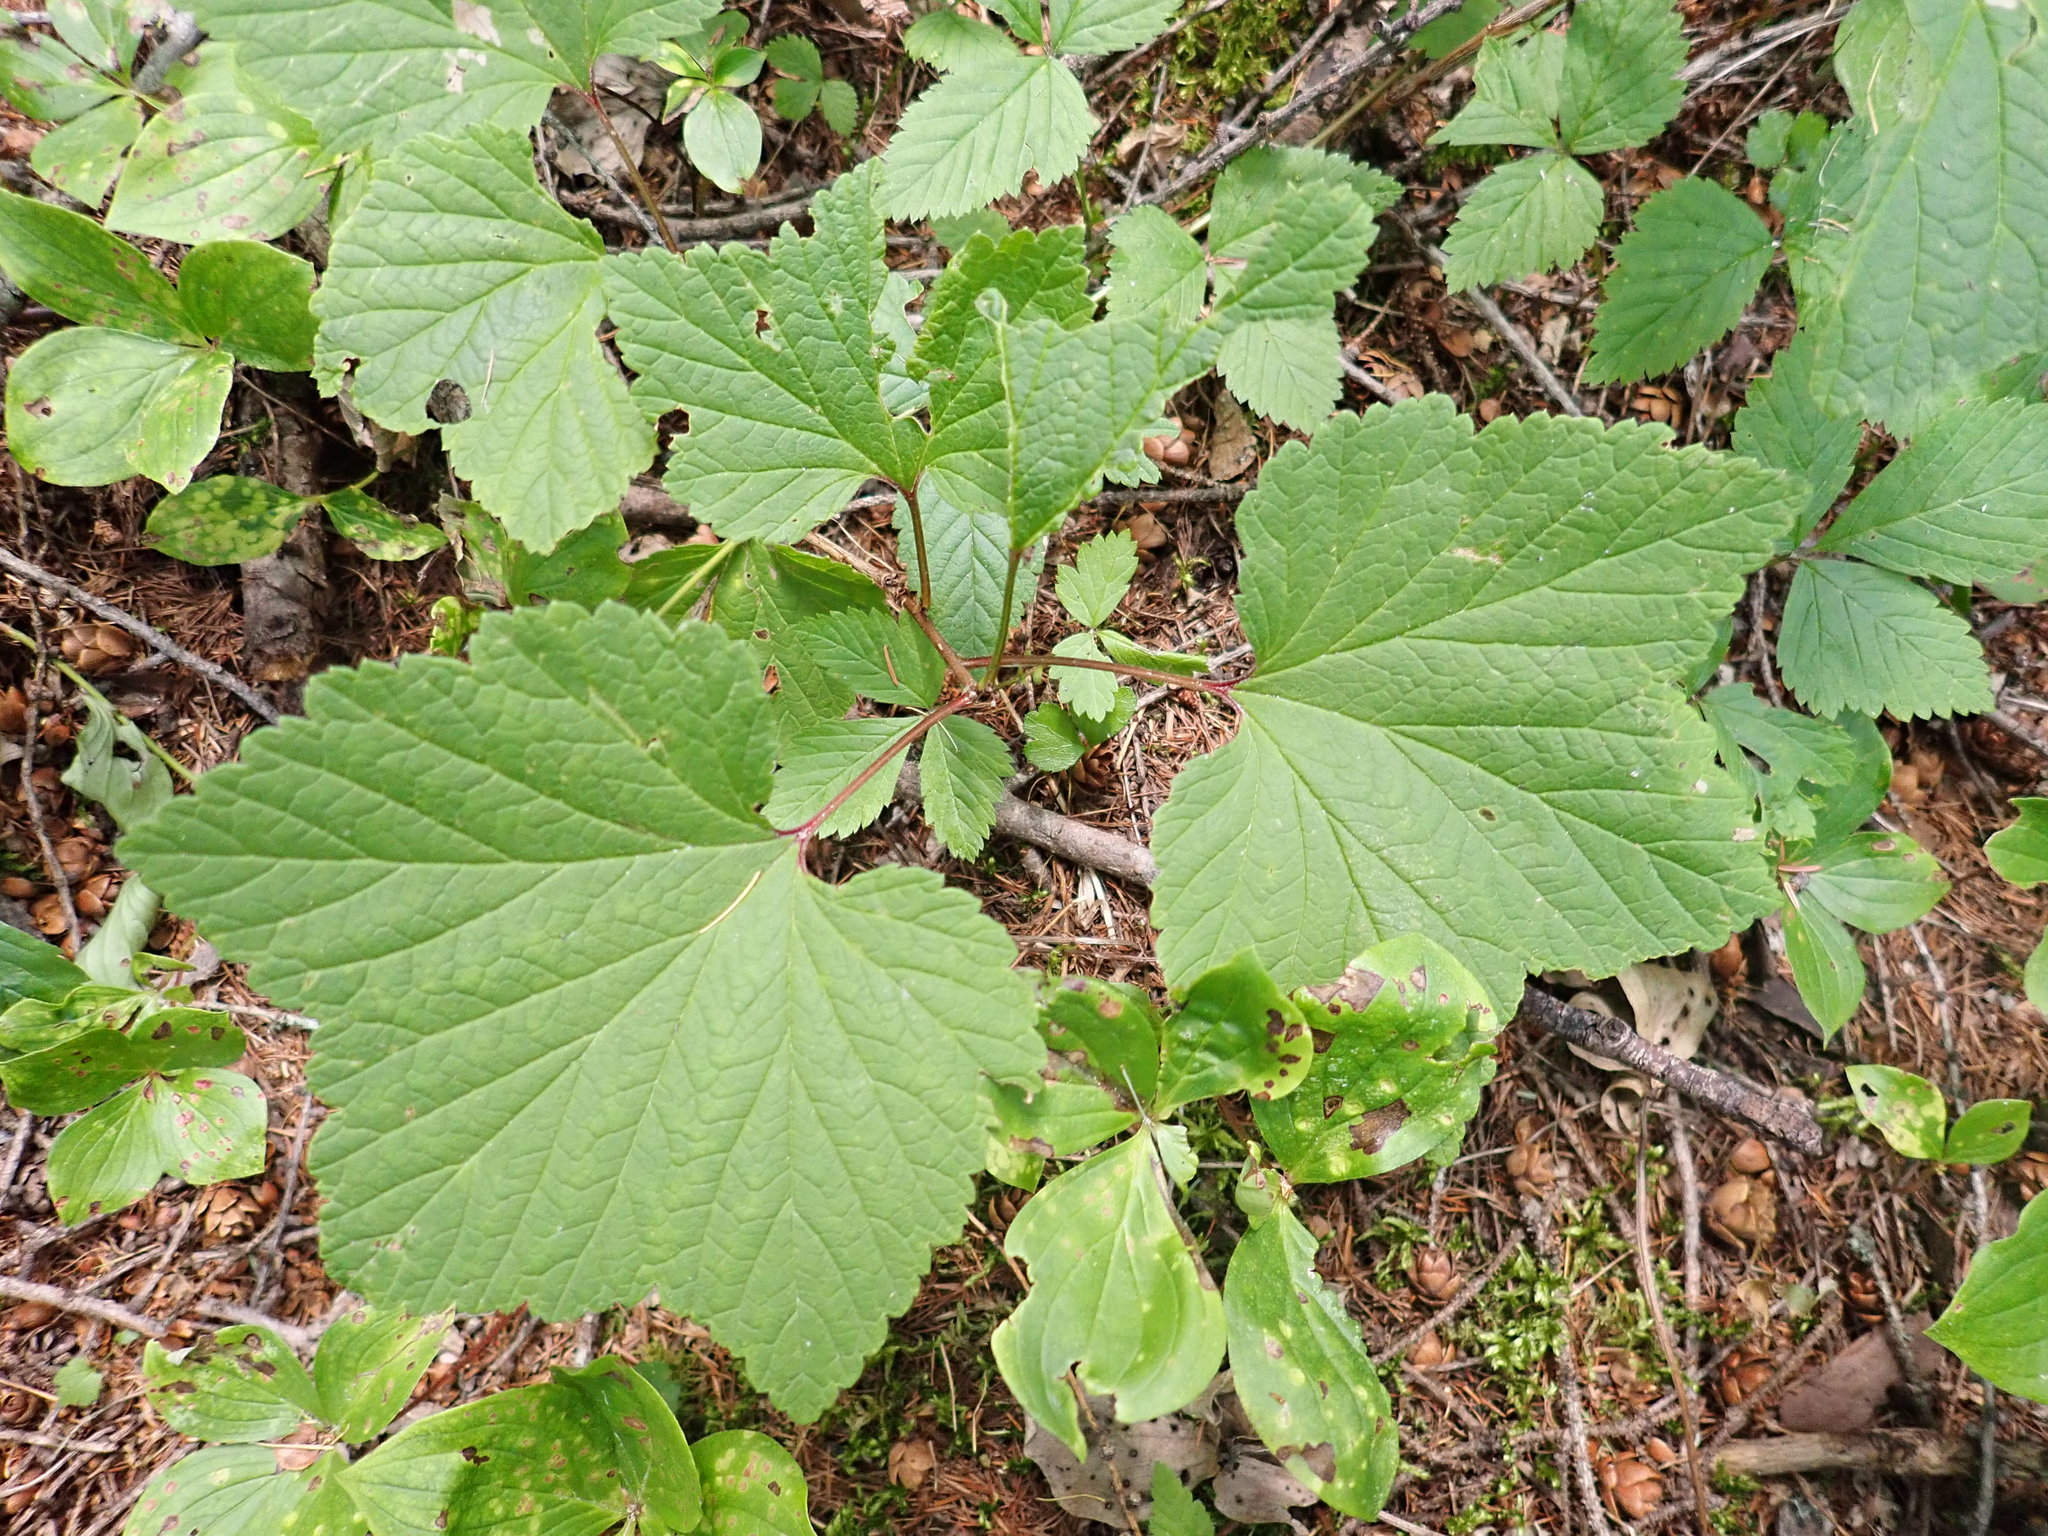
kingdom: Plantae
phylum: Tracheophyta
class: Magnoliopsida
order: Saxifragales
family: Grossulariaceae
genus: Ribes
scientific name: Ribes triste
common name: Swamp red currant
